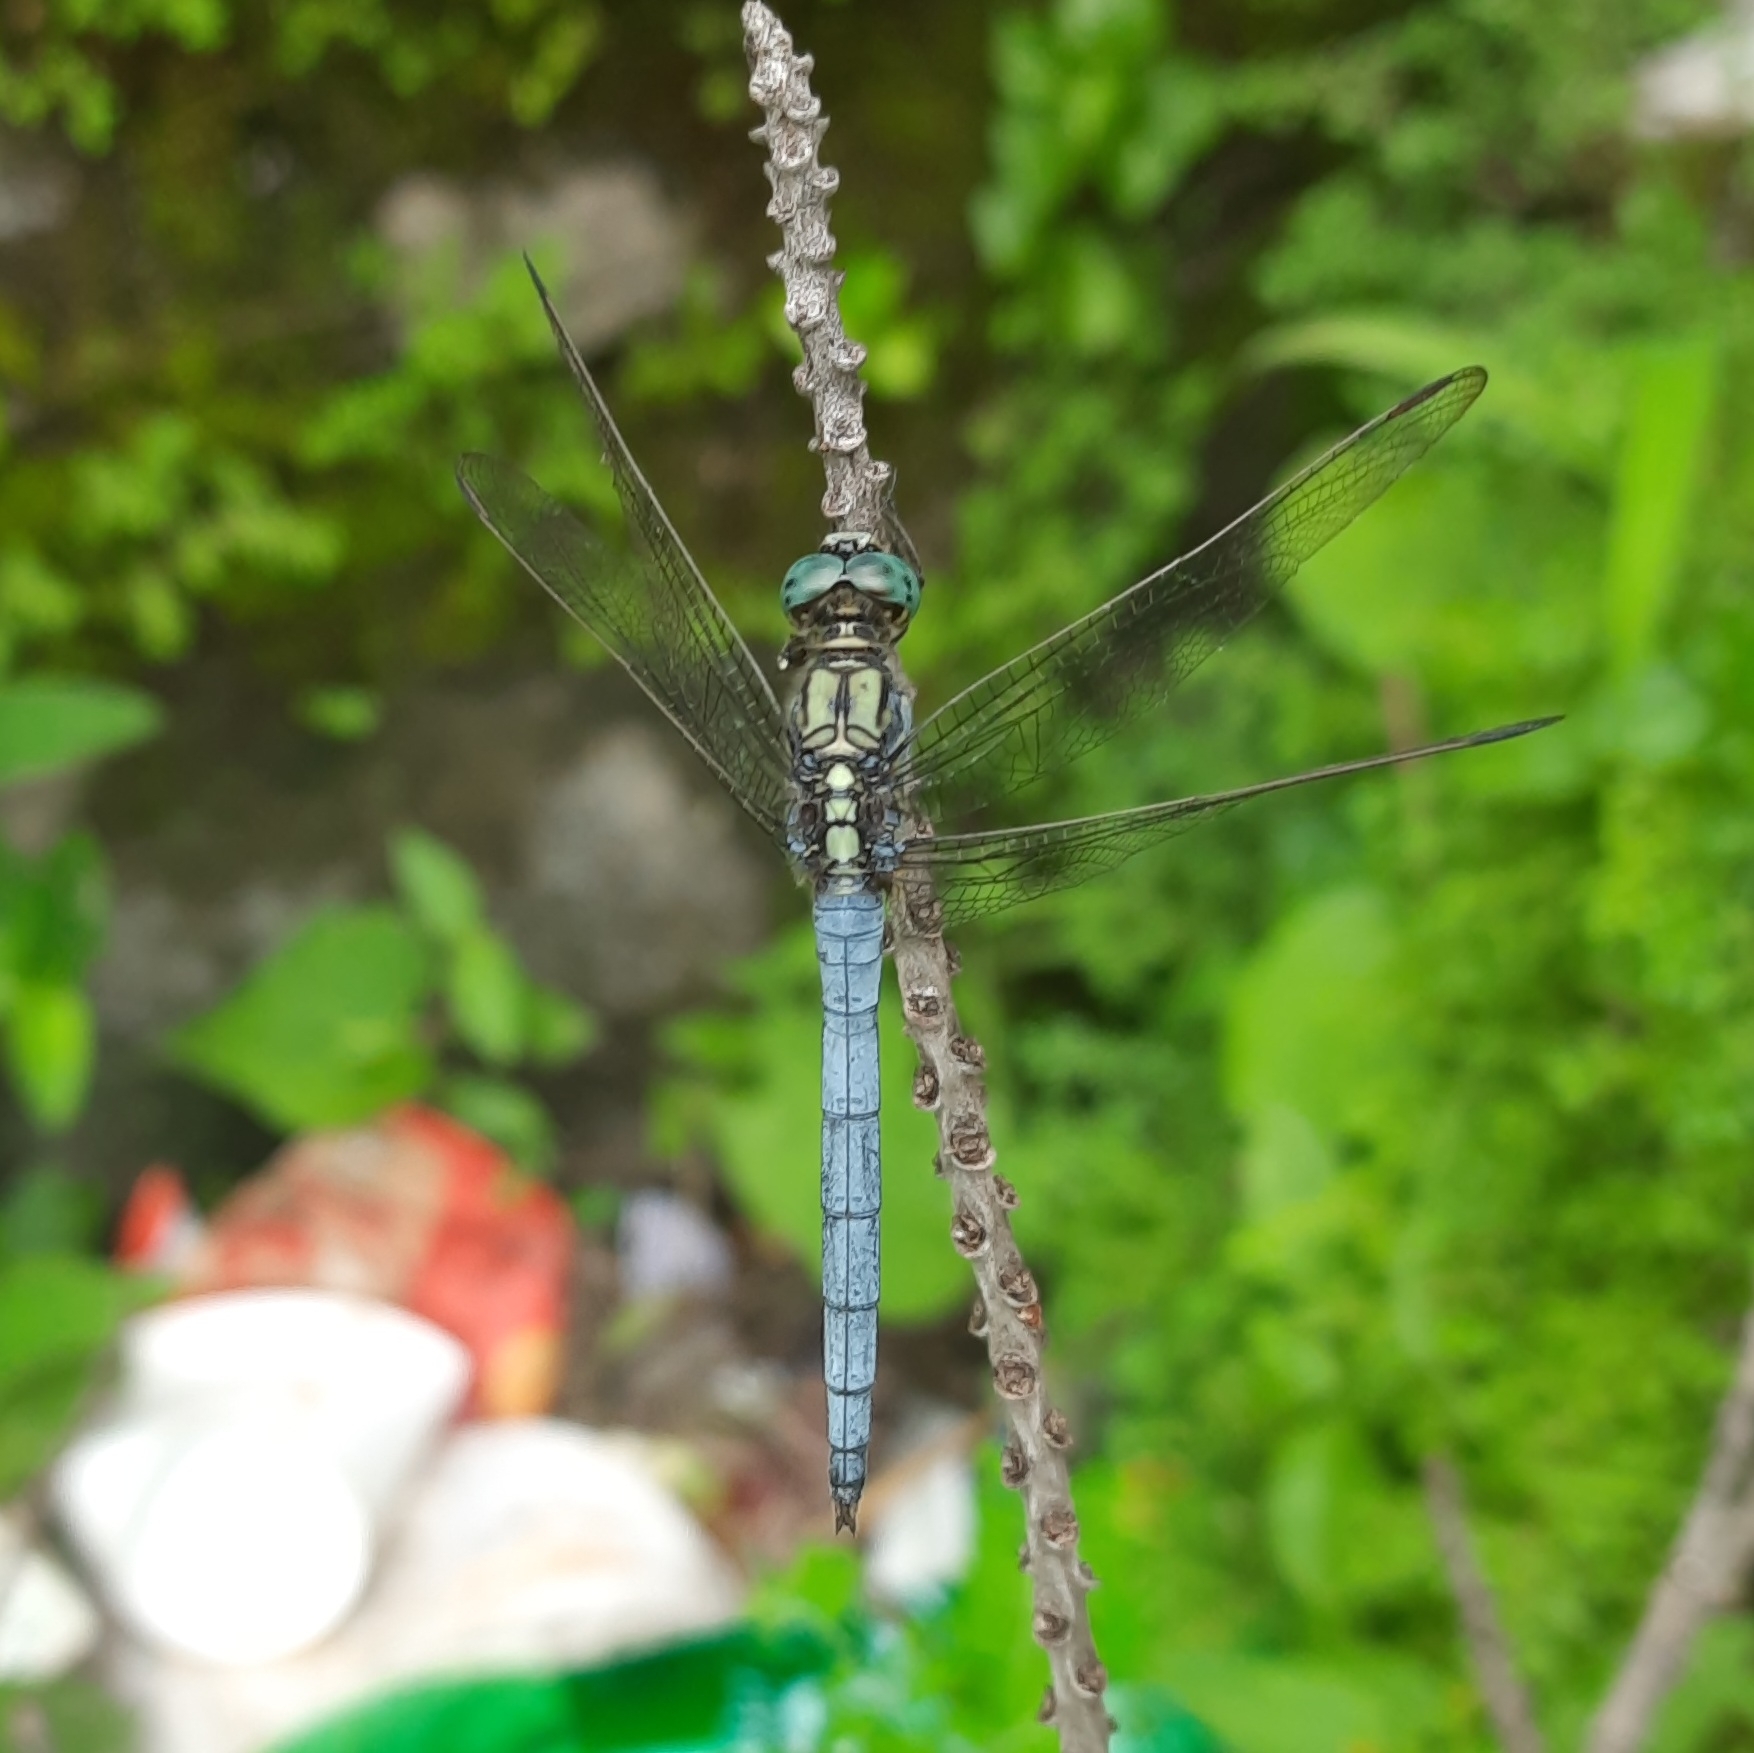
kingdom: Animalia
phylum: Arthropoda
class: Insecta
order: Odonata
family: Libellulidae
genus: Orthetrum
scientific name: Orthetrum luzonicum
